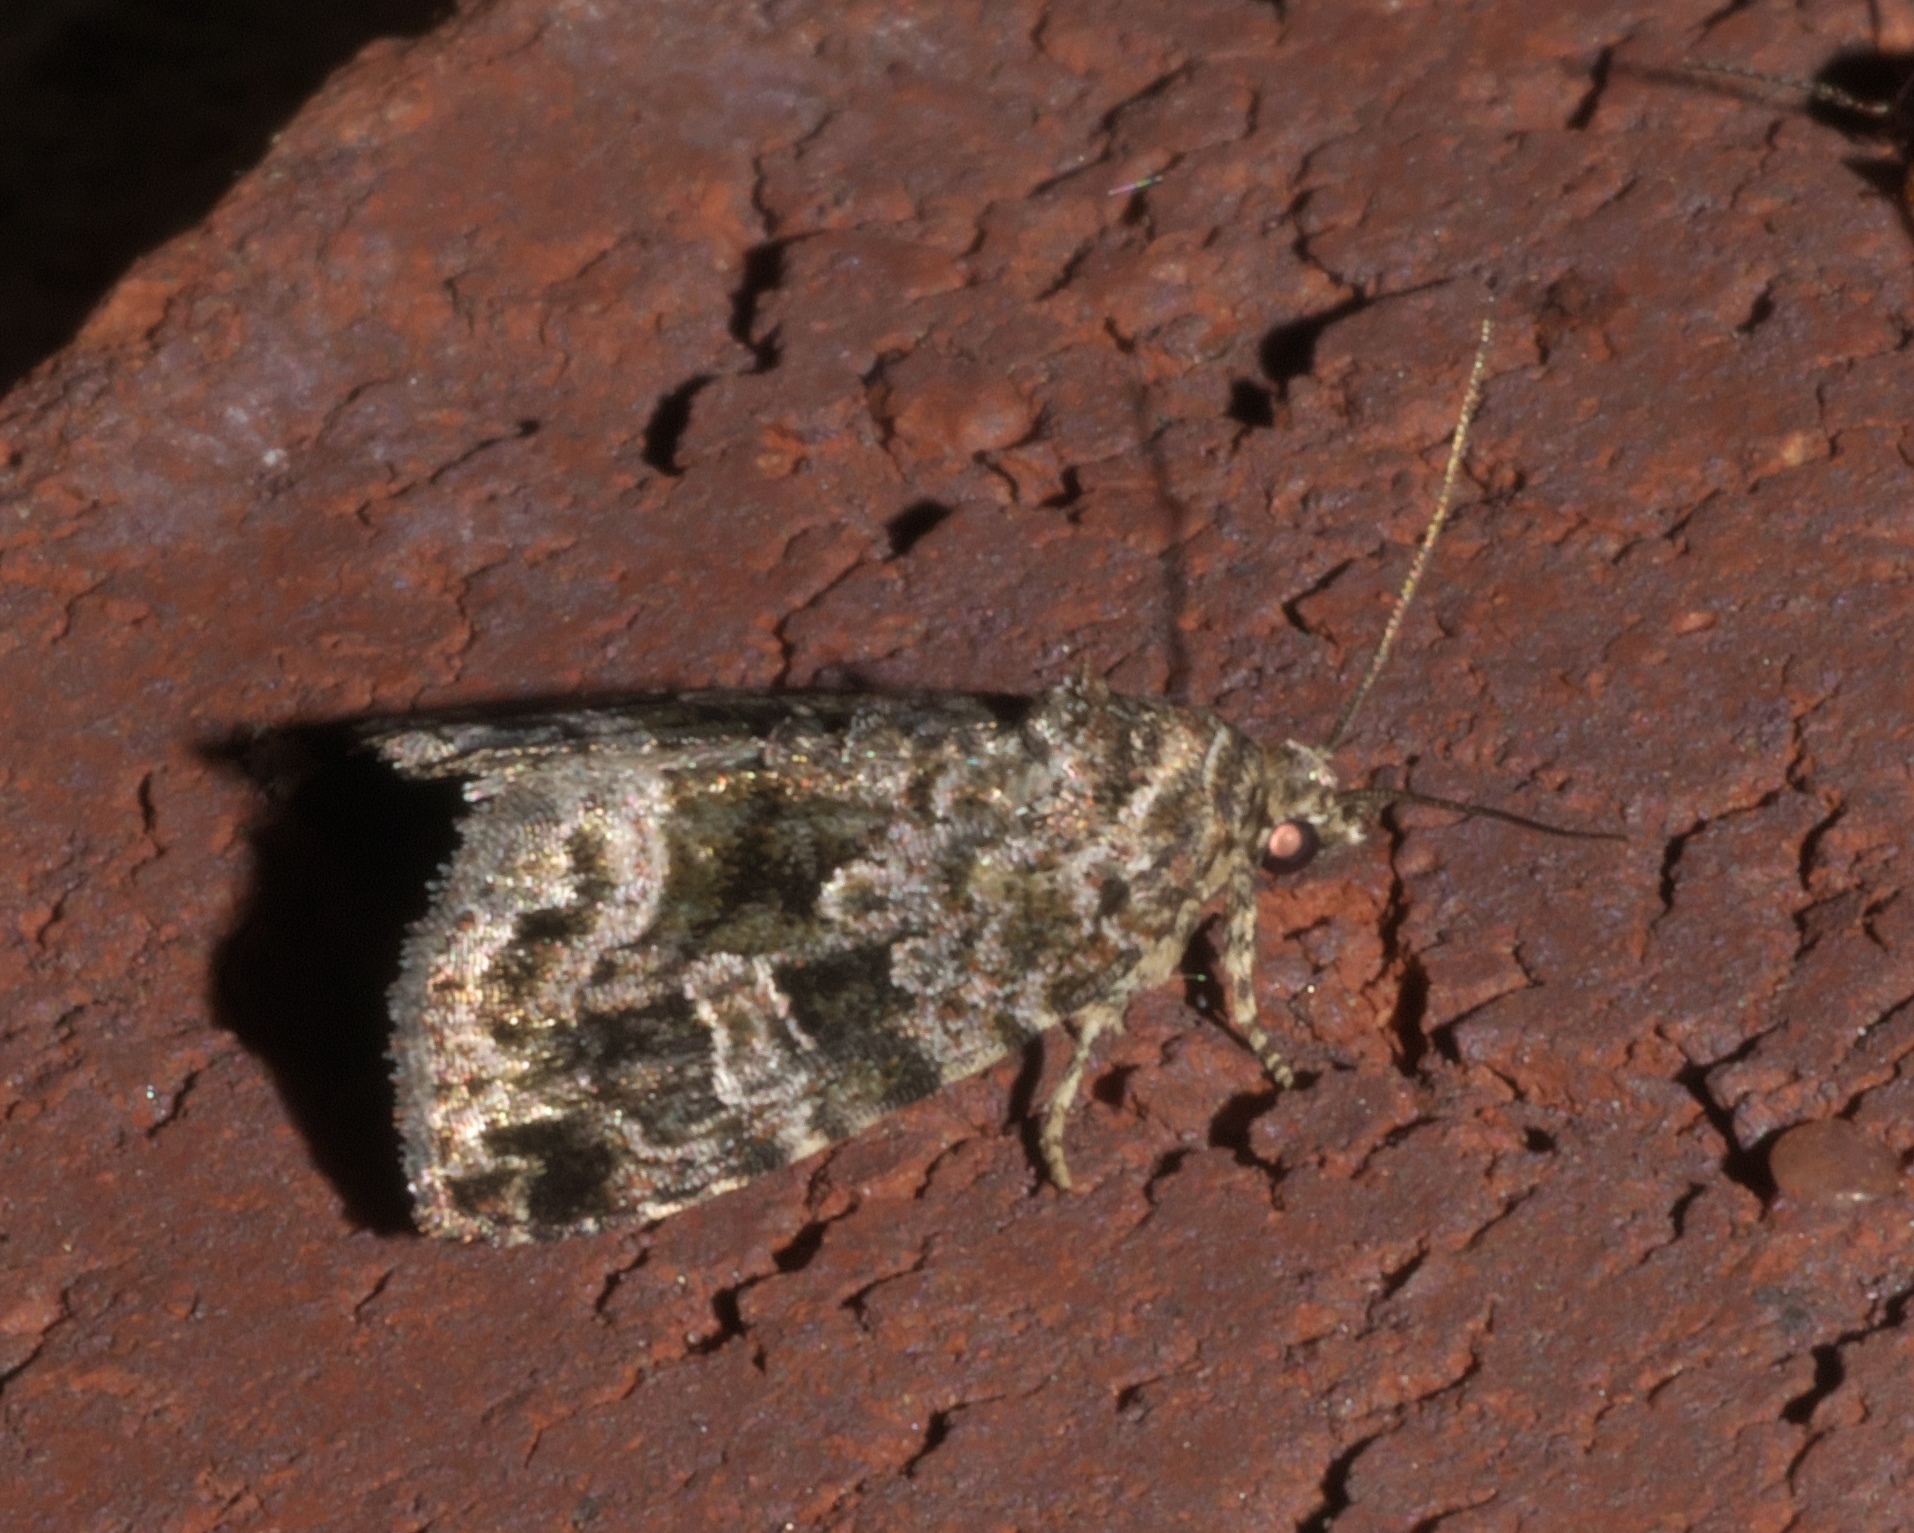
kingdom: Animalia
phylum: Arthropoda
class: Insecta
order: Lepidoptera
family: Noctuidae
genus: Protodeltote
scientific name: Protodeltote muscosula
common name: Large mossy glyph
